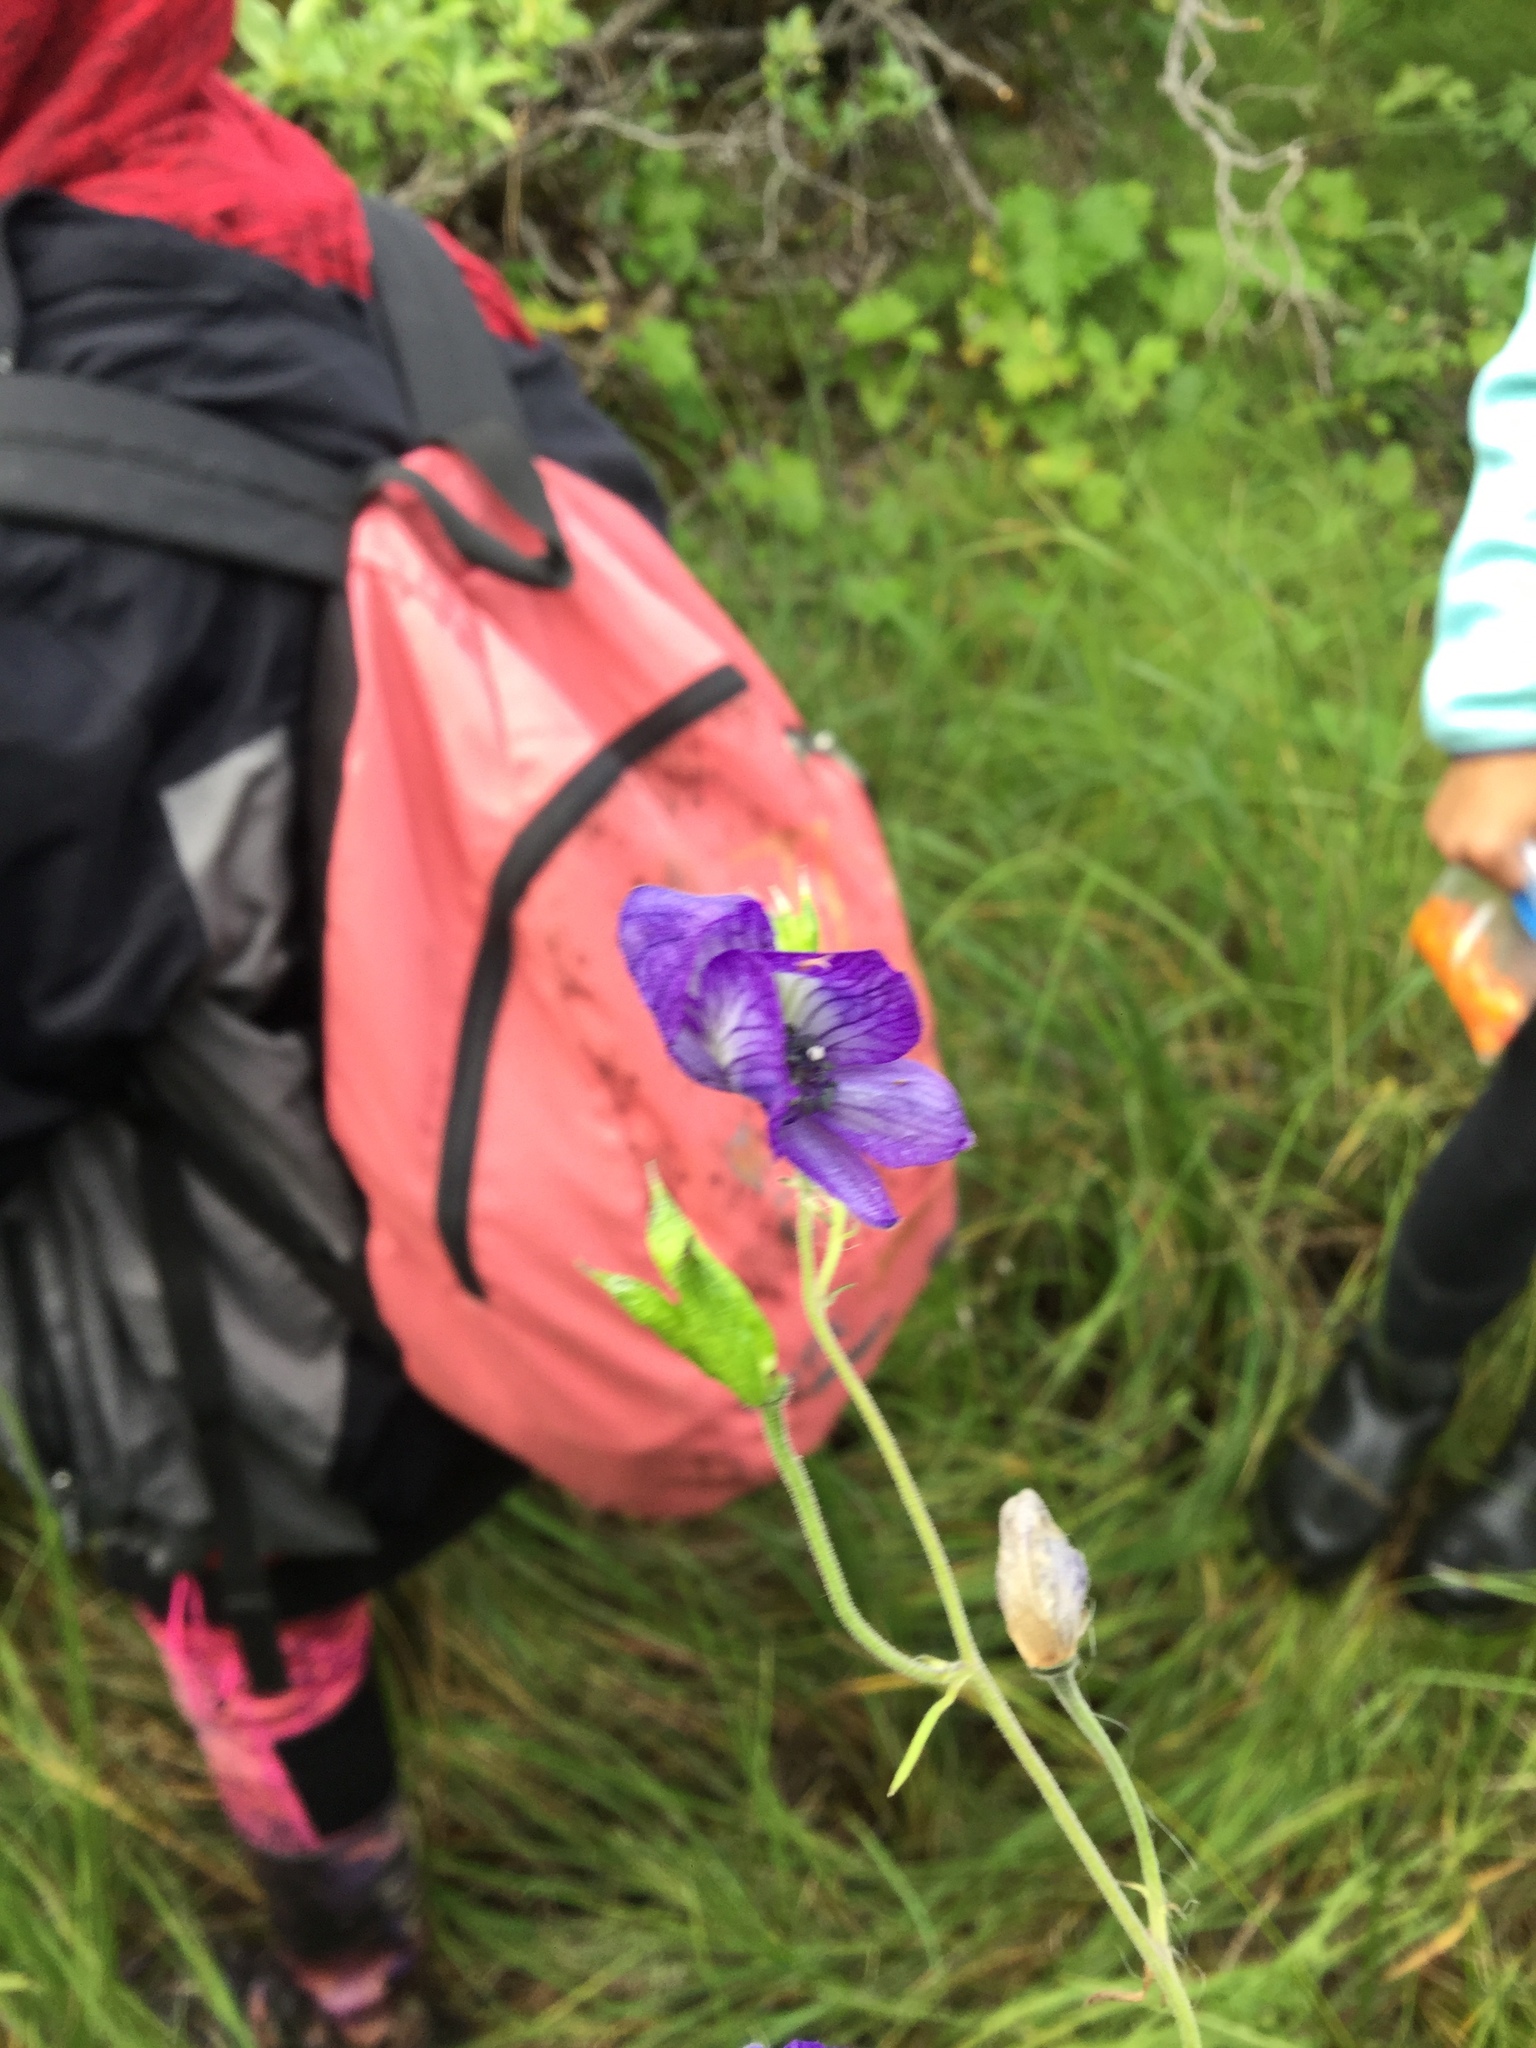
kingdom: Plantae
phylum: Tracheophyta
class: Magnoliopsida
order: Ranunculales
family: Ranunculaceae
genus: Aconitum
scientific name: Aconitum delphiniifolium
